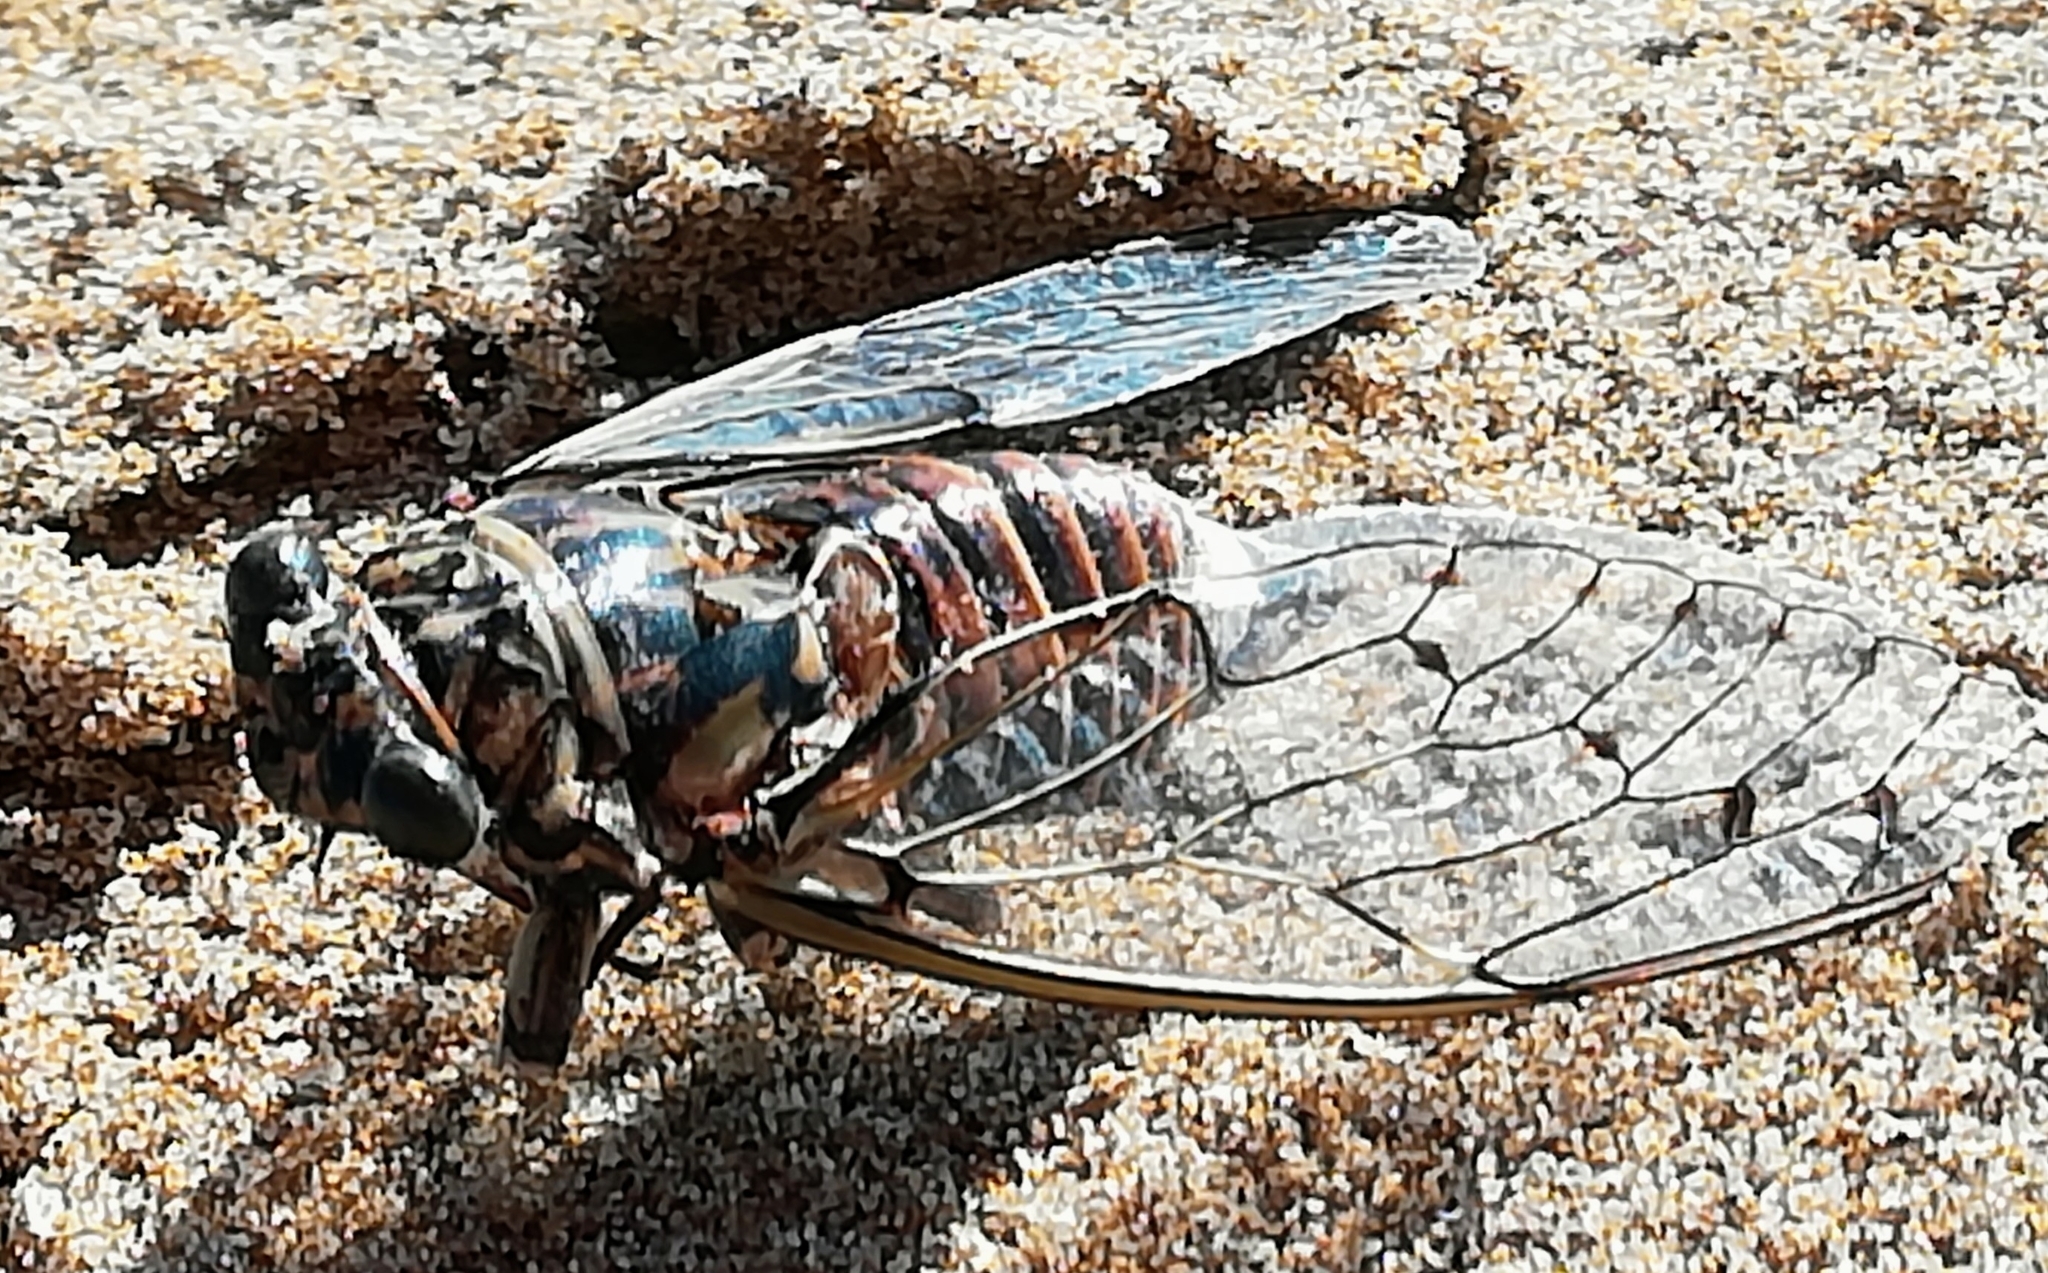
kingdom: Animalia
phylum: Arthropoda
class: Insecta
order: Hemiptera
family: Cicadidae
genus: Cicada
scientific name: Cicada orni
